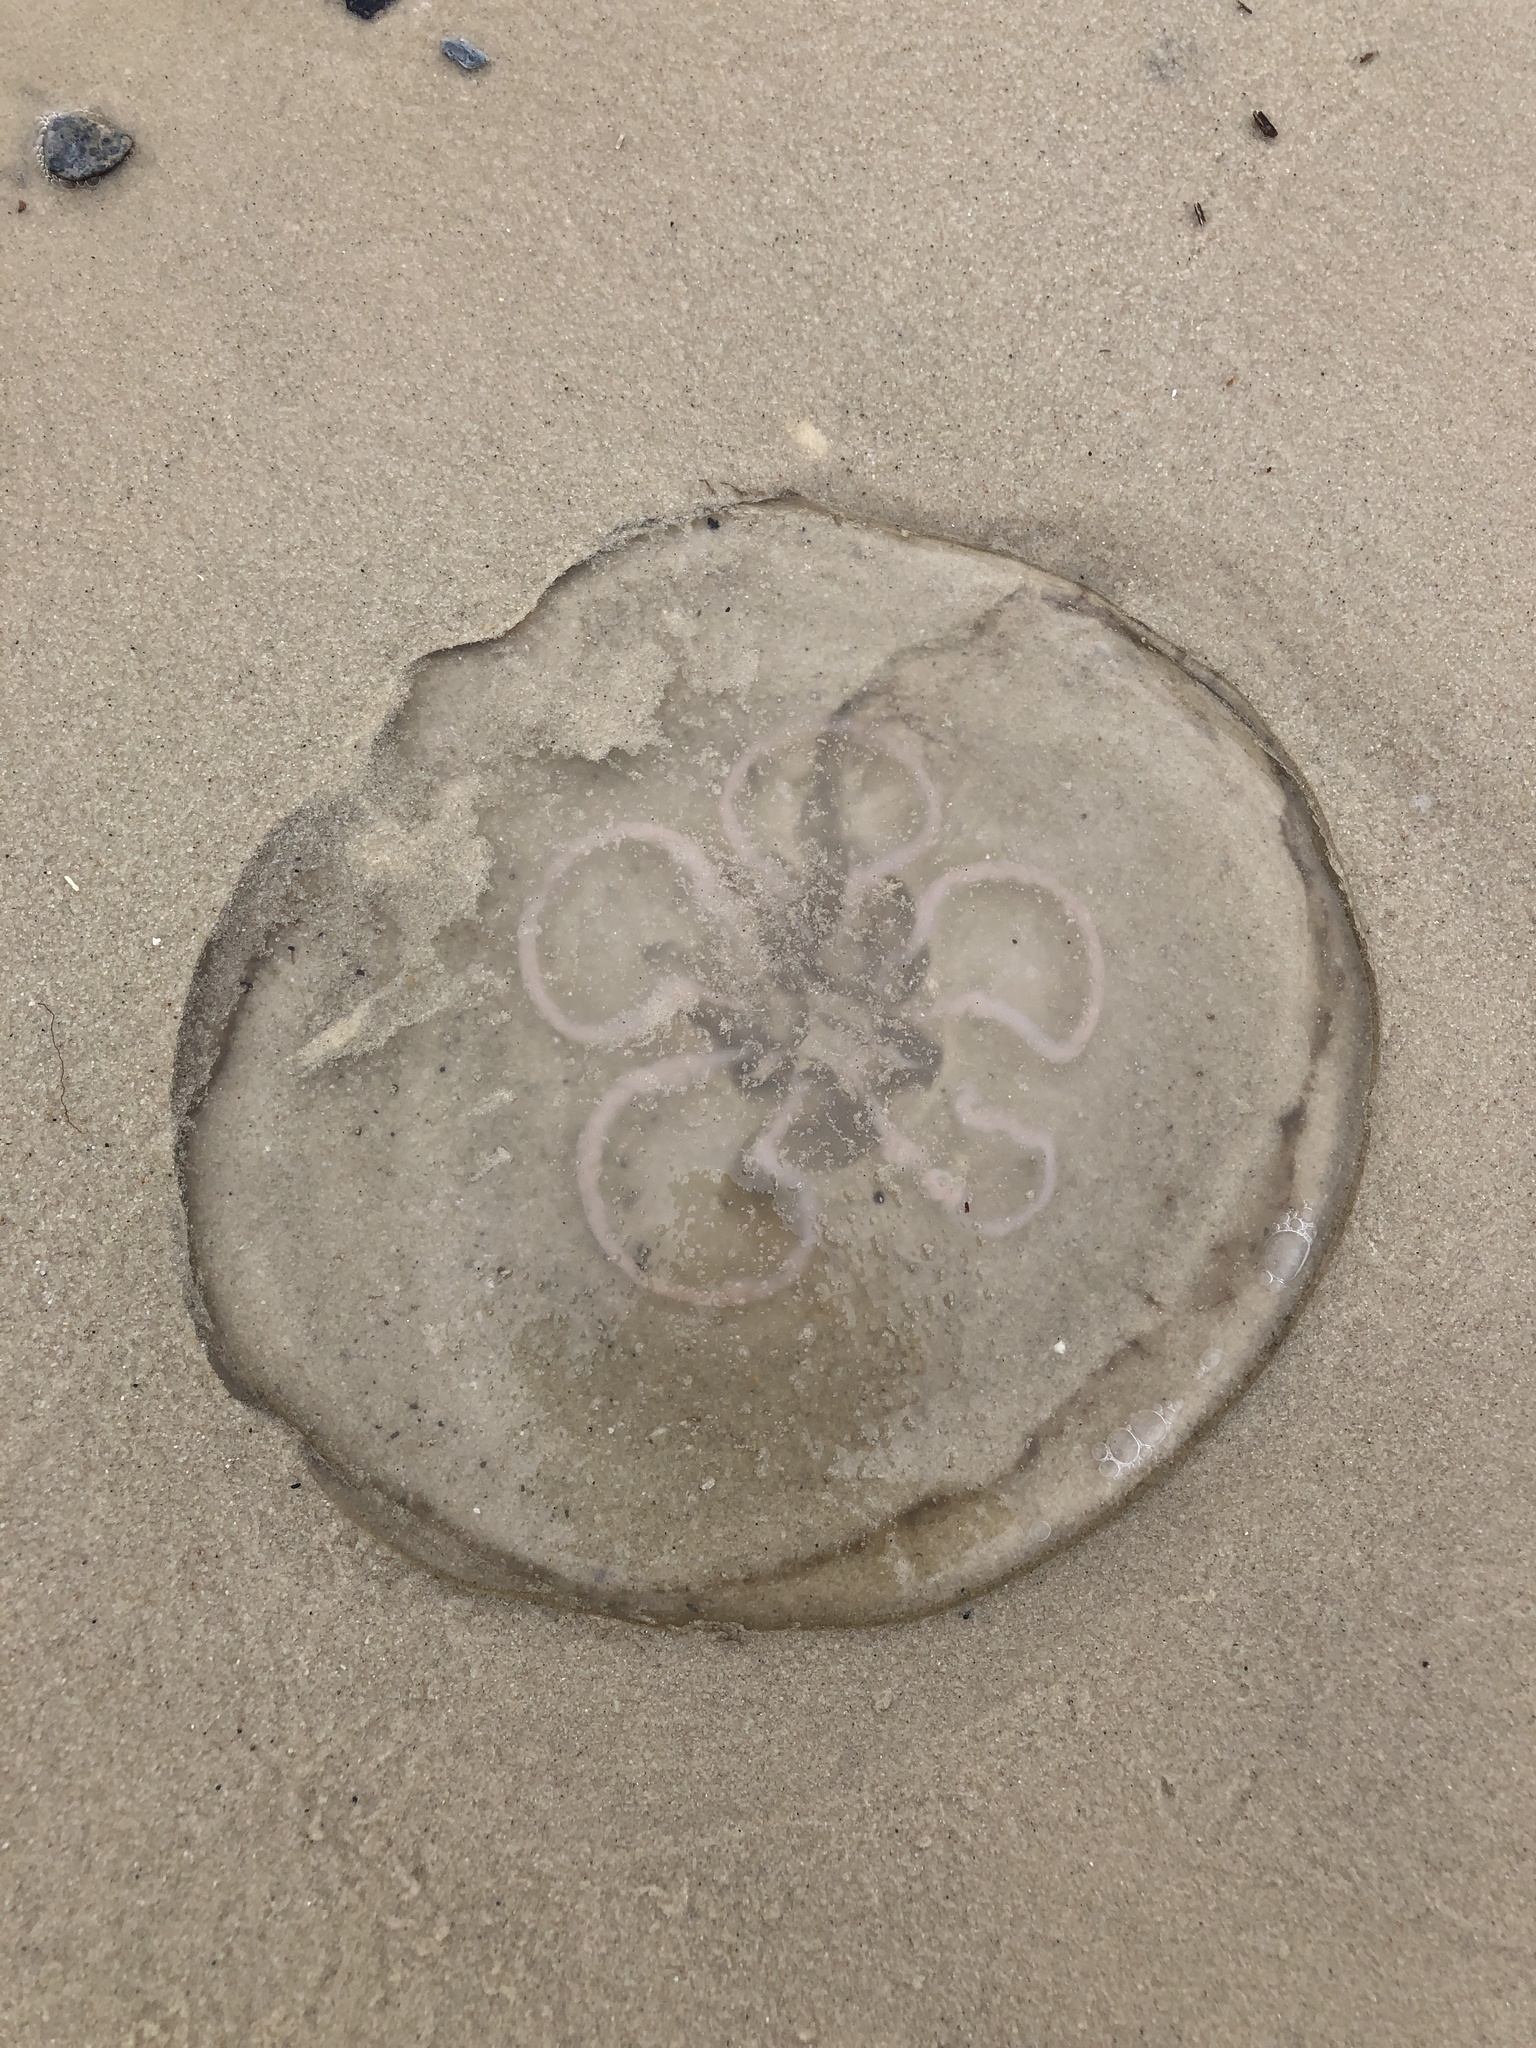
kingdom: Animalia
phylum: Cnidaria
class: Scyphozoa
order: Semaeostomeae
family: Ulmaridae
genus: Aurelia
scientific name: Aurelia marginalis
